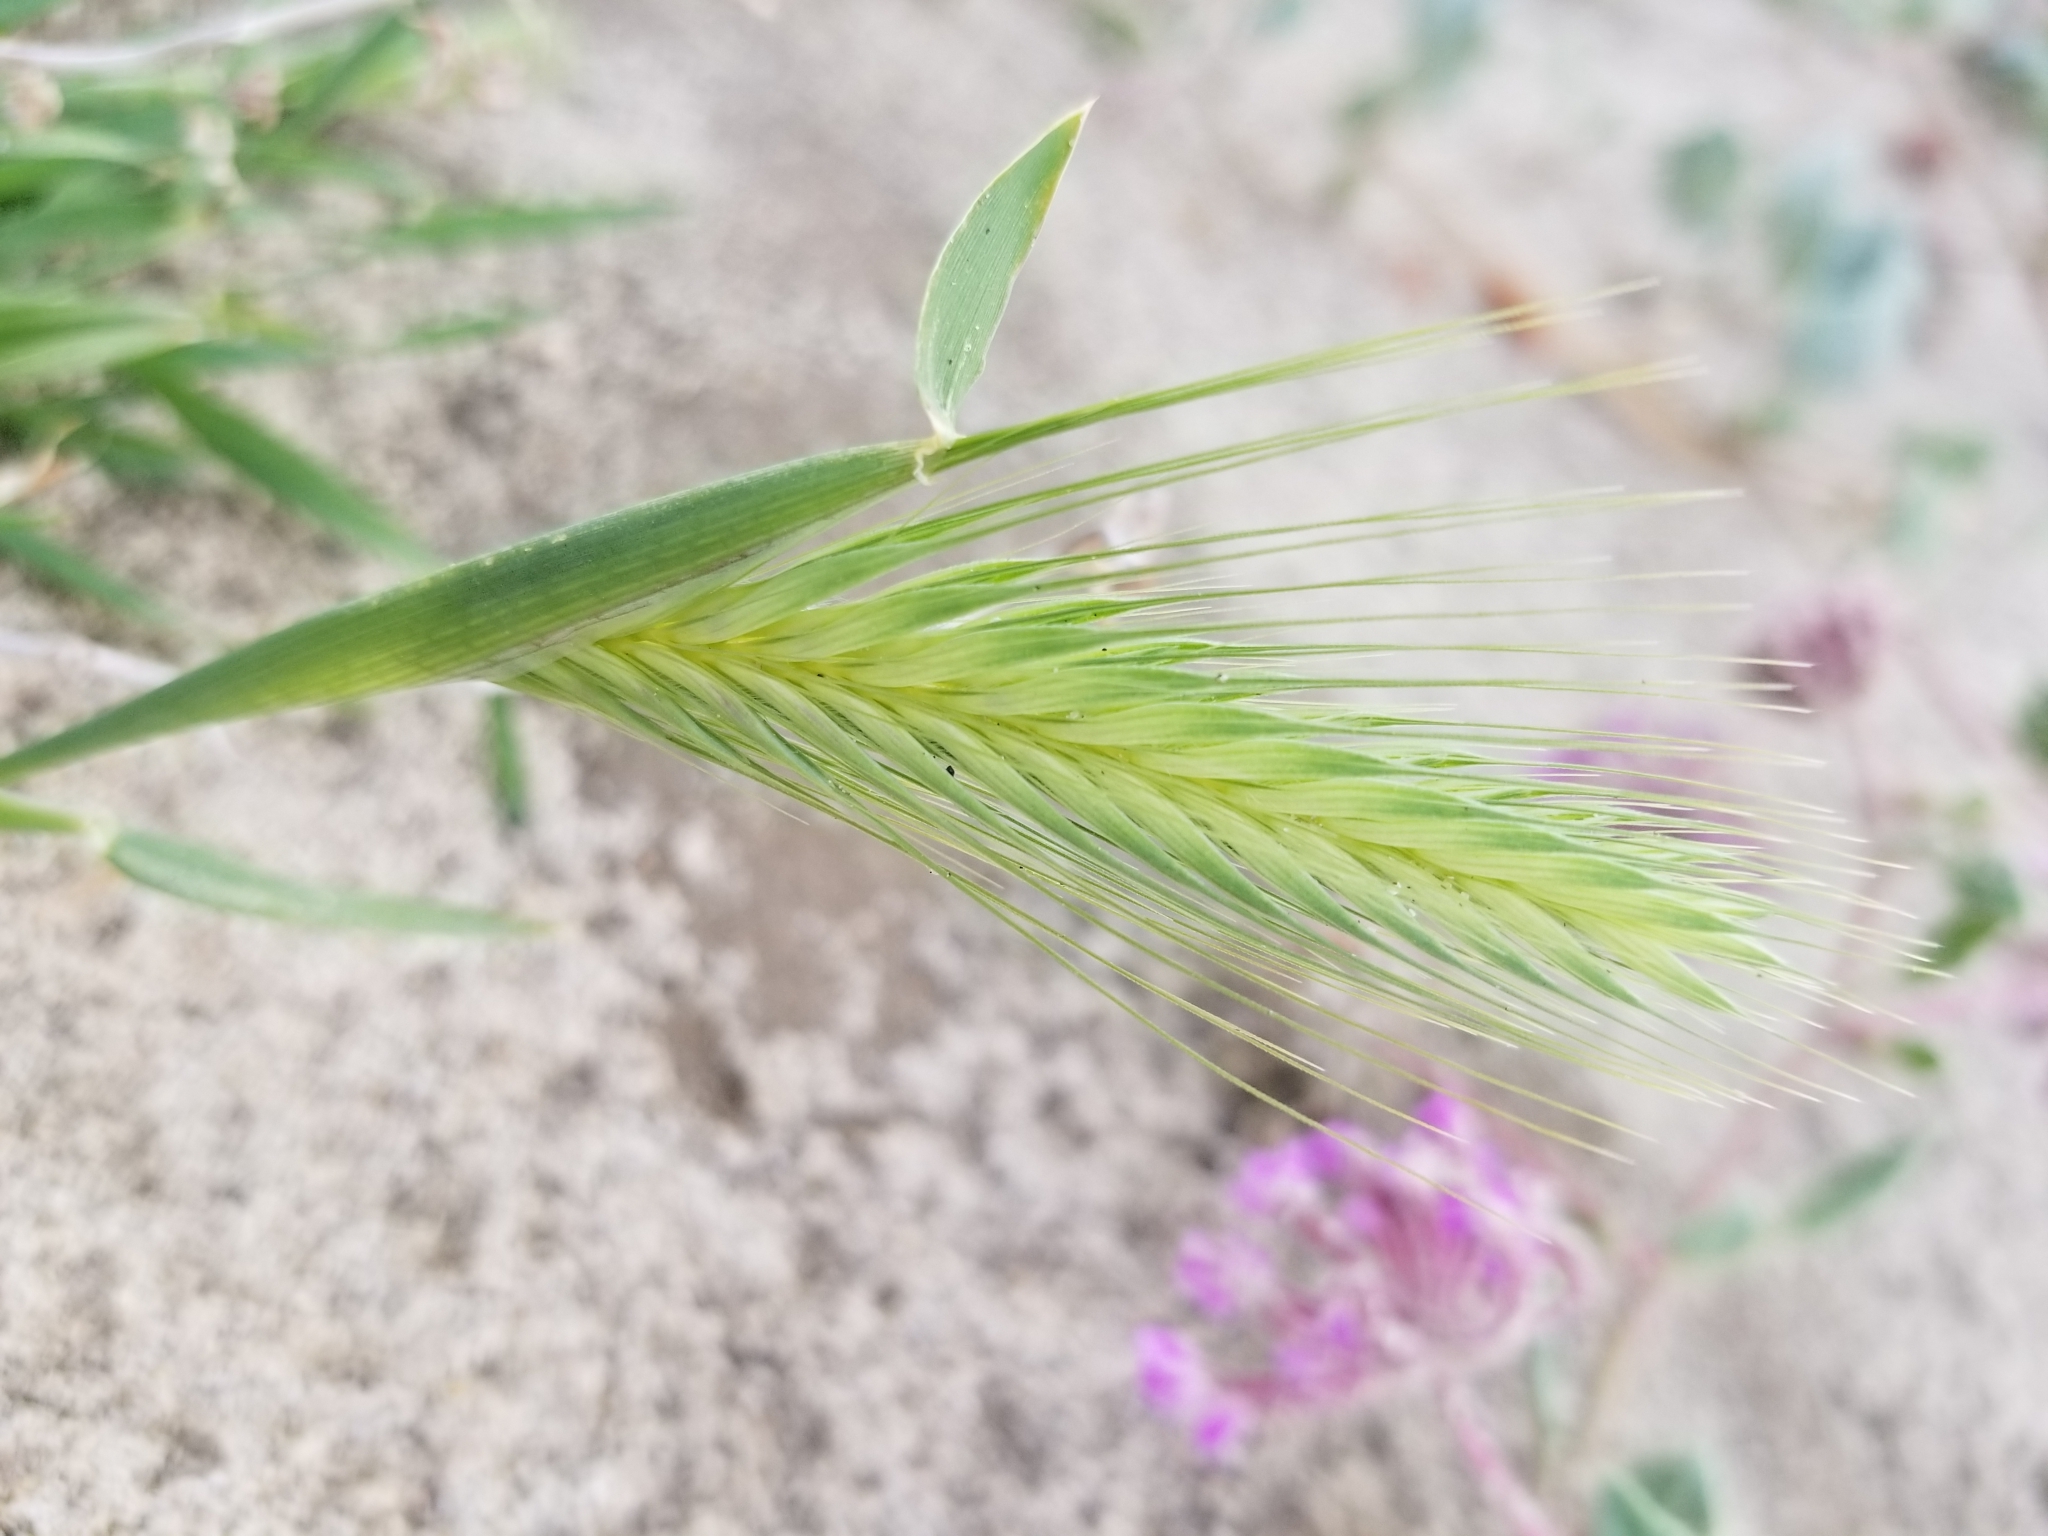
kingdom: Plantae
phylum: Tracheophyta
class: Liliopsida
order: Poales
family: Poaceae
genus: Hordeum
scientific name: Hordeum murinum
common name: Wall barley
